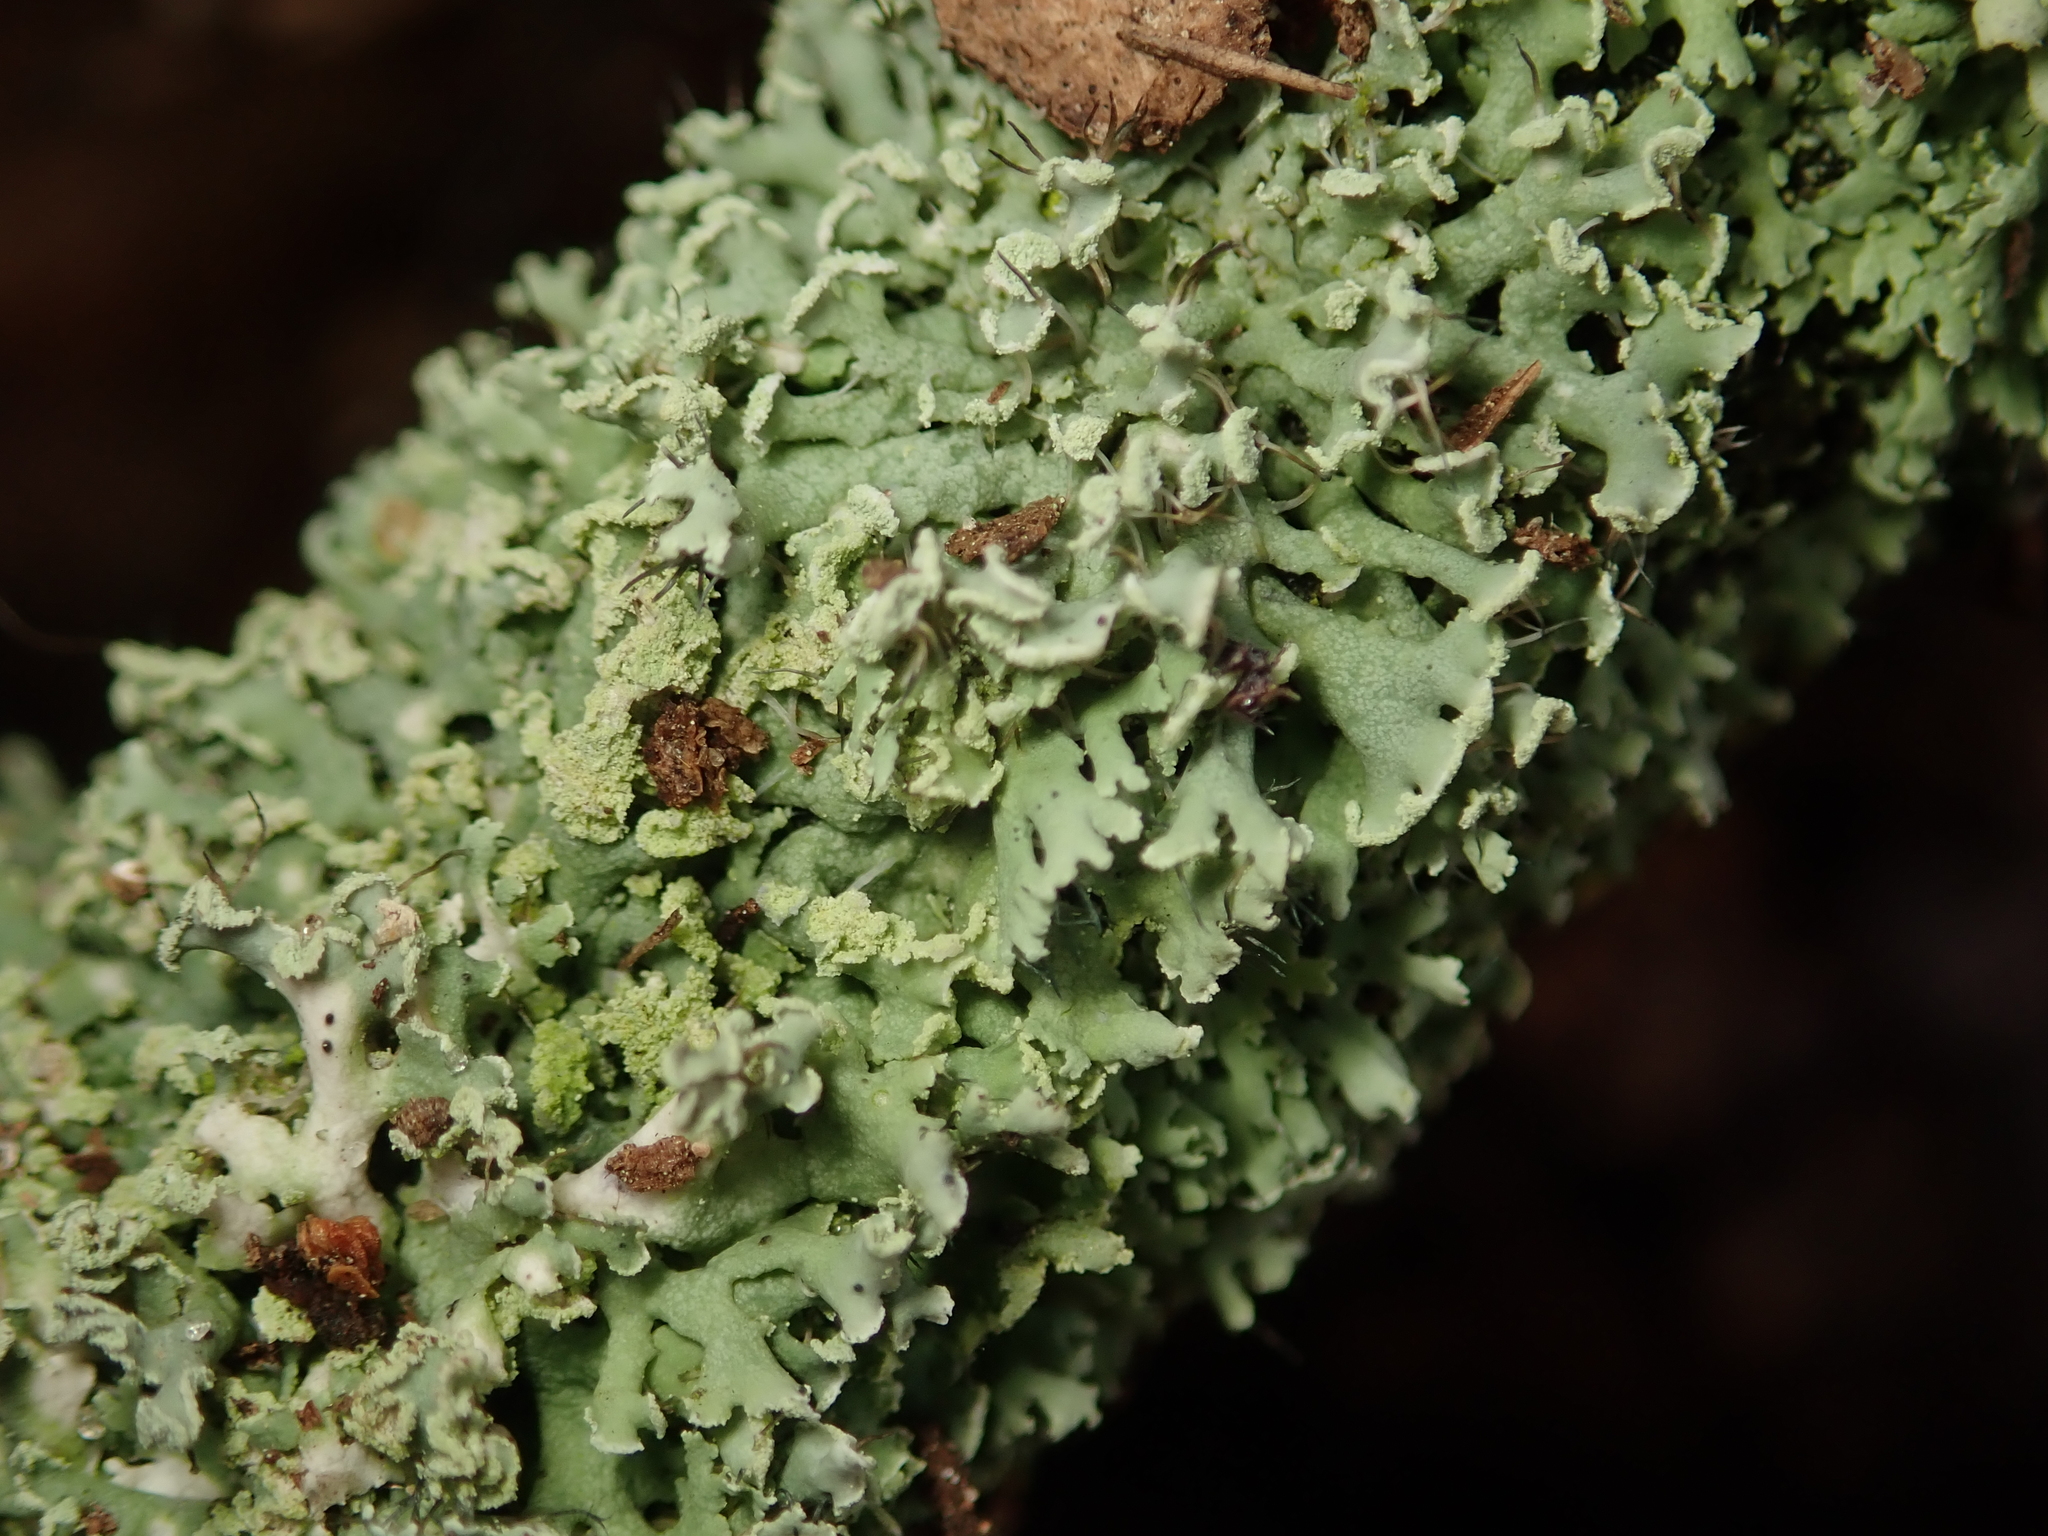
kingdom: Fungi
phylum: Ascomycota
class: Lecanoromycetes
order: Caliciales
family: Physciaceae
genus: Physcia
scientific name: Physcia tenella
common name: Fringed rosette lichen
